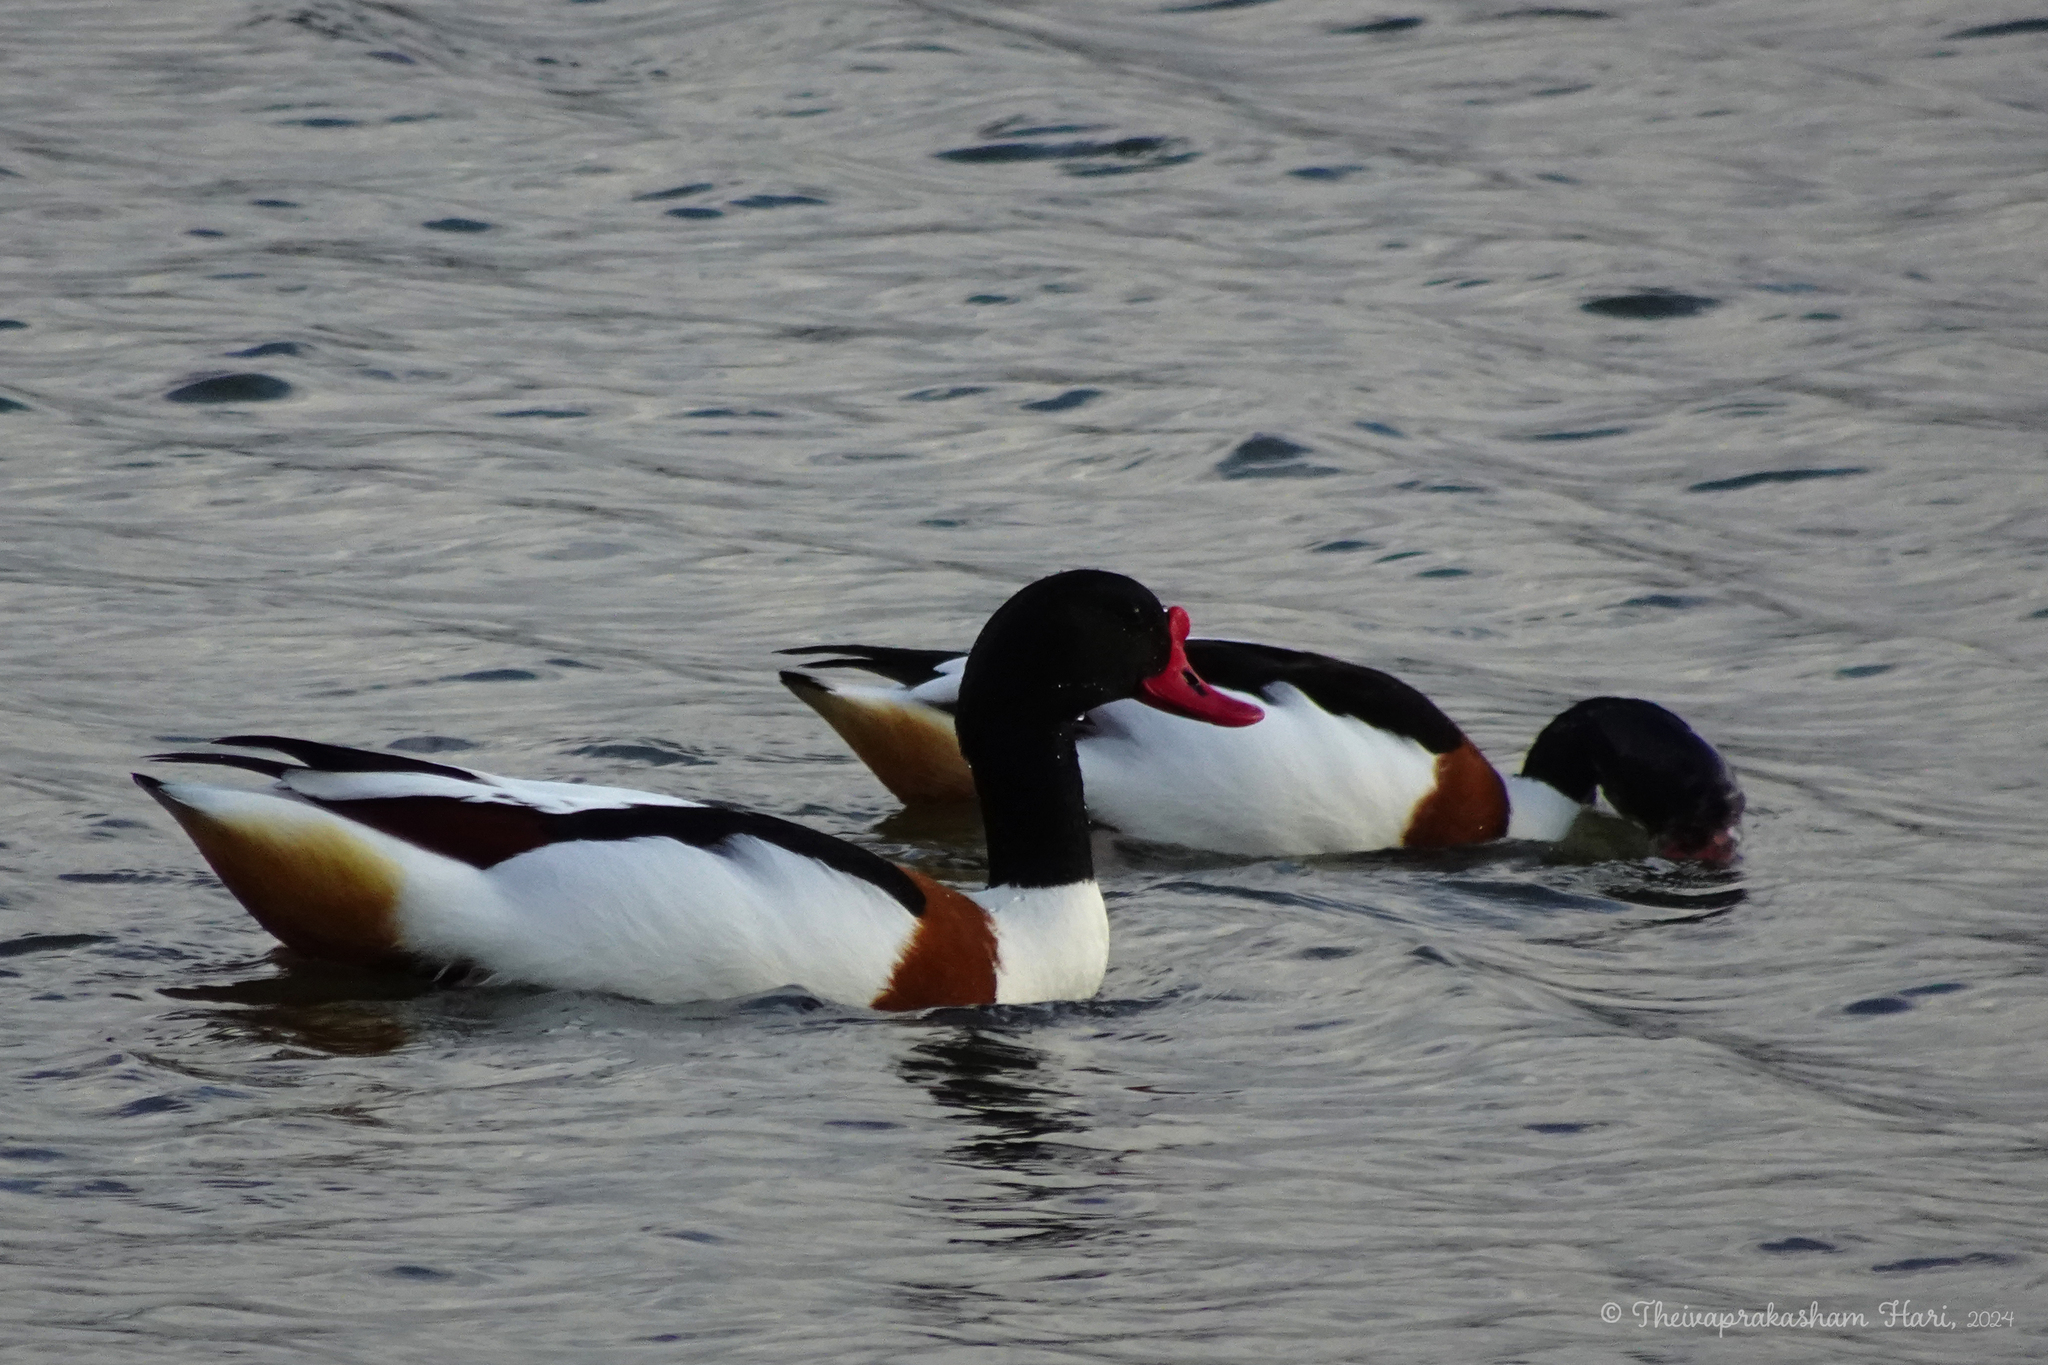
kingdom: Animalia
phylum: Chordata
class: Aves
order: Anseriformes
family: Anatidae
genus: Tadorna
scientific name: Tadorna tadorna
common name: Common shelduck
